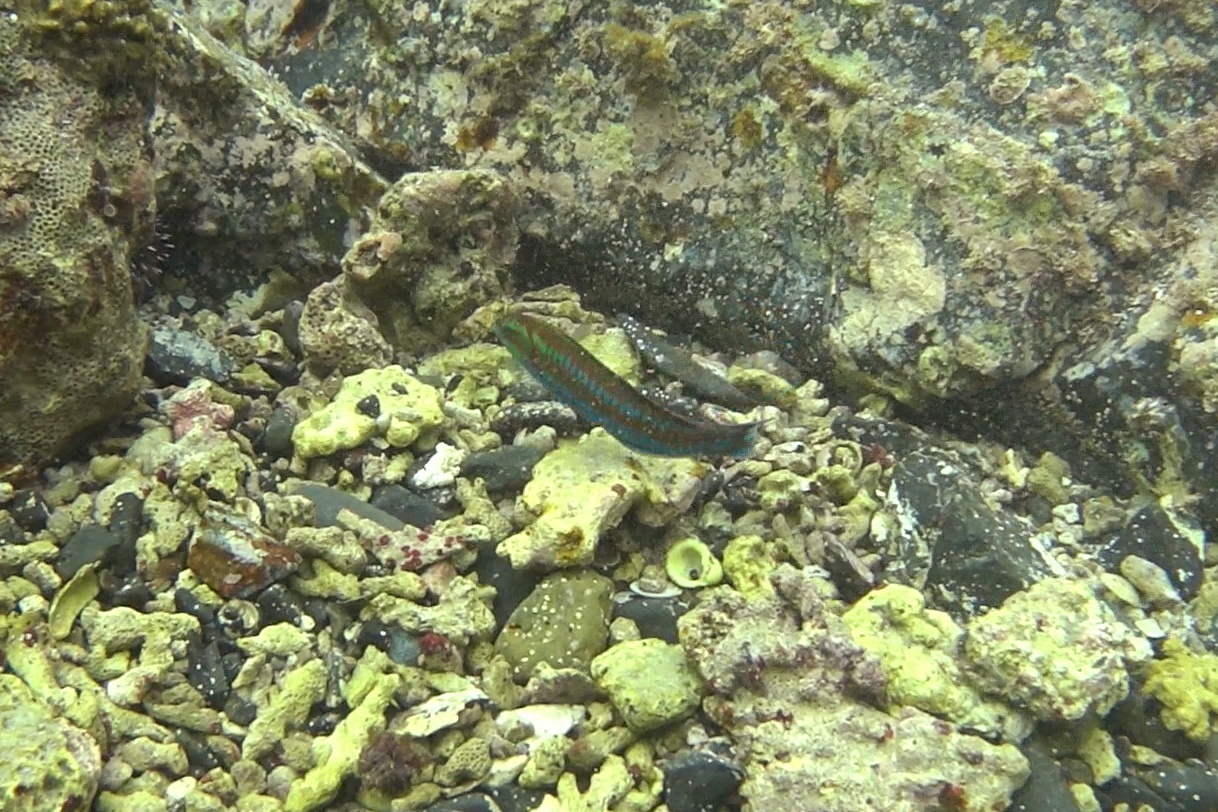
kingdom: Animalia
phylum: Chordata
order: Perciformes
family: Labridae
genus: Thalassoma
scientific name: Thalassoma cupido
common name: Cupid wrasse
